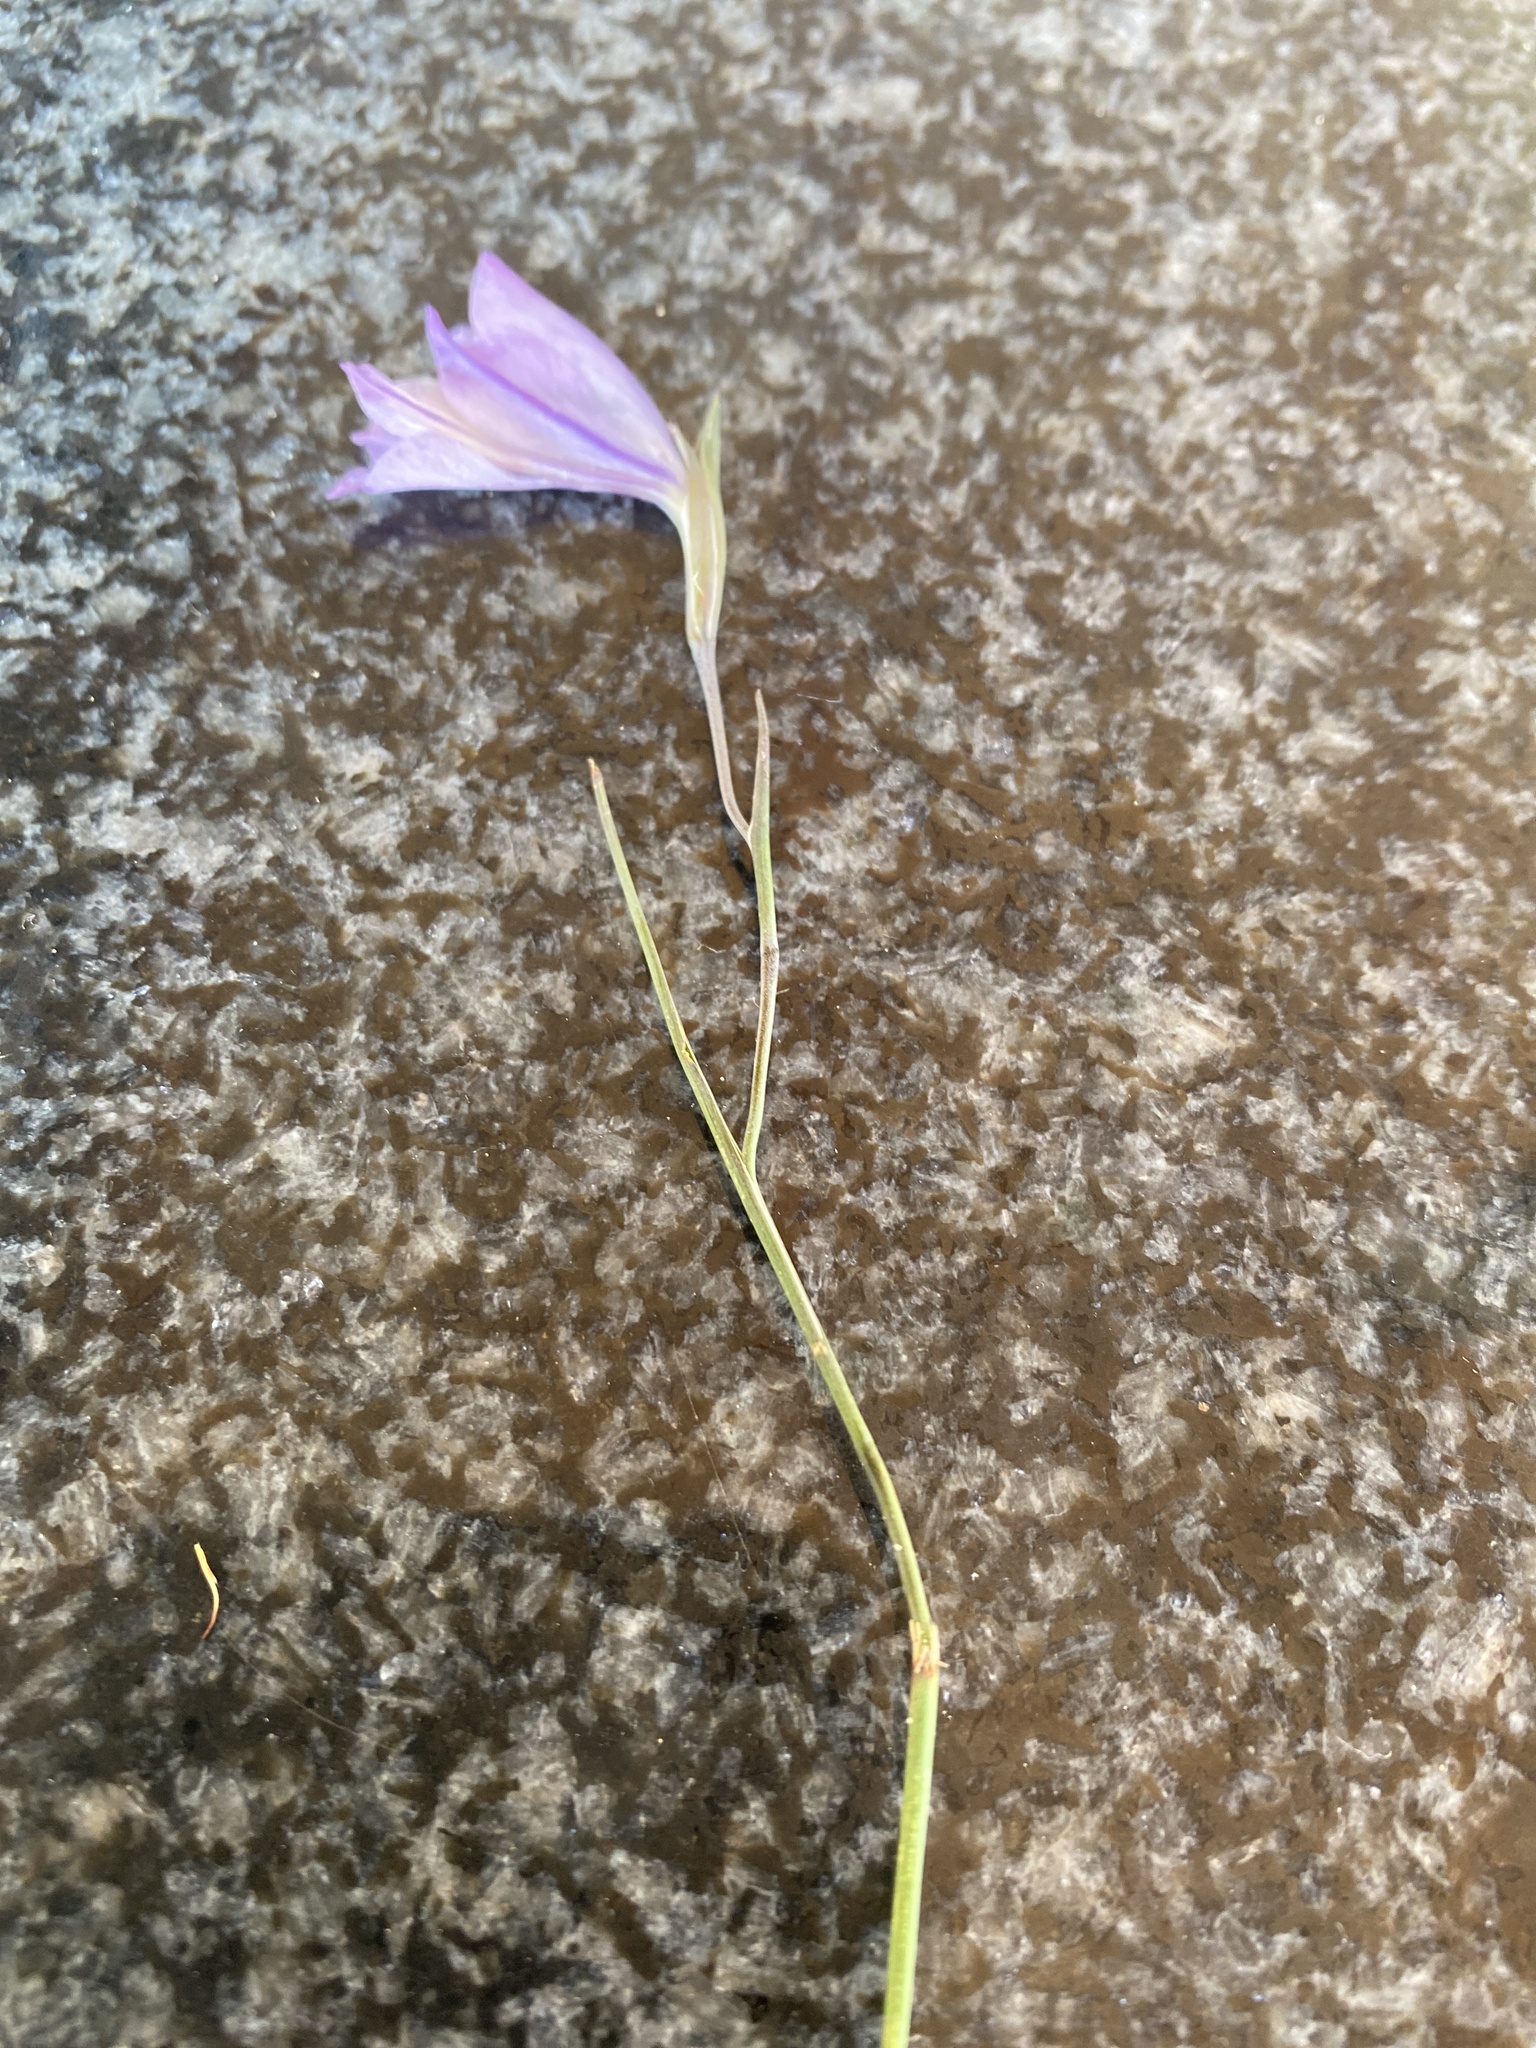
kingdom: Plantae
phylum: Tracheophyta
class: Liliopsida
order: Asparagales
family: Iridaceae
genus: Gladiolus
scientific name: Gladiolus vaginatus
